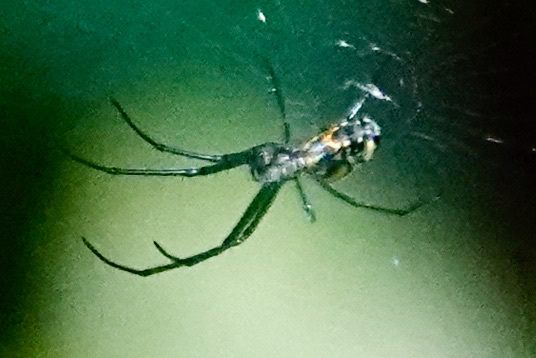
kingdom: Animalia
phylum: Arthropoda
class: Arachnida
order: Araneae
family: Tetragnathidae
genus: Leucauge
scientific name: Leucauge venusta
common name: Longjawed orb weavers
